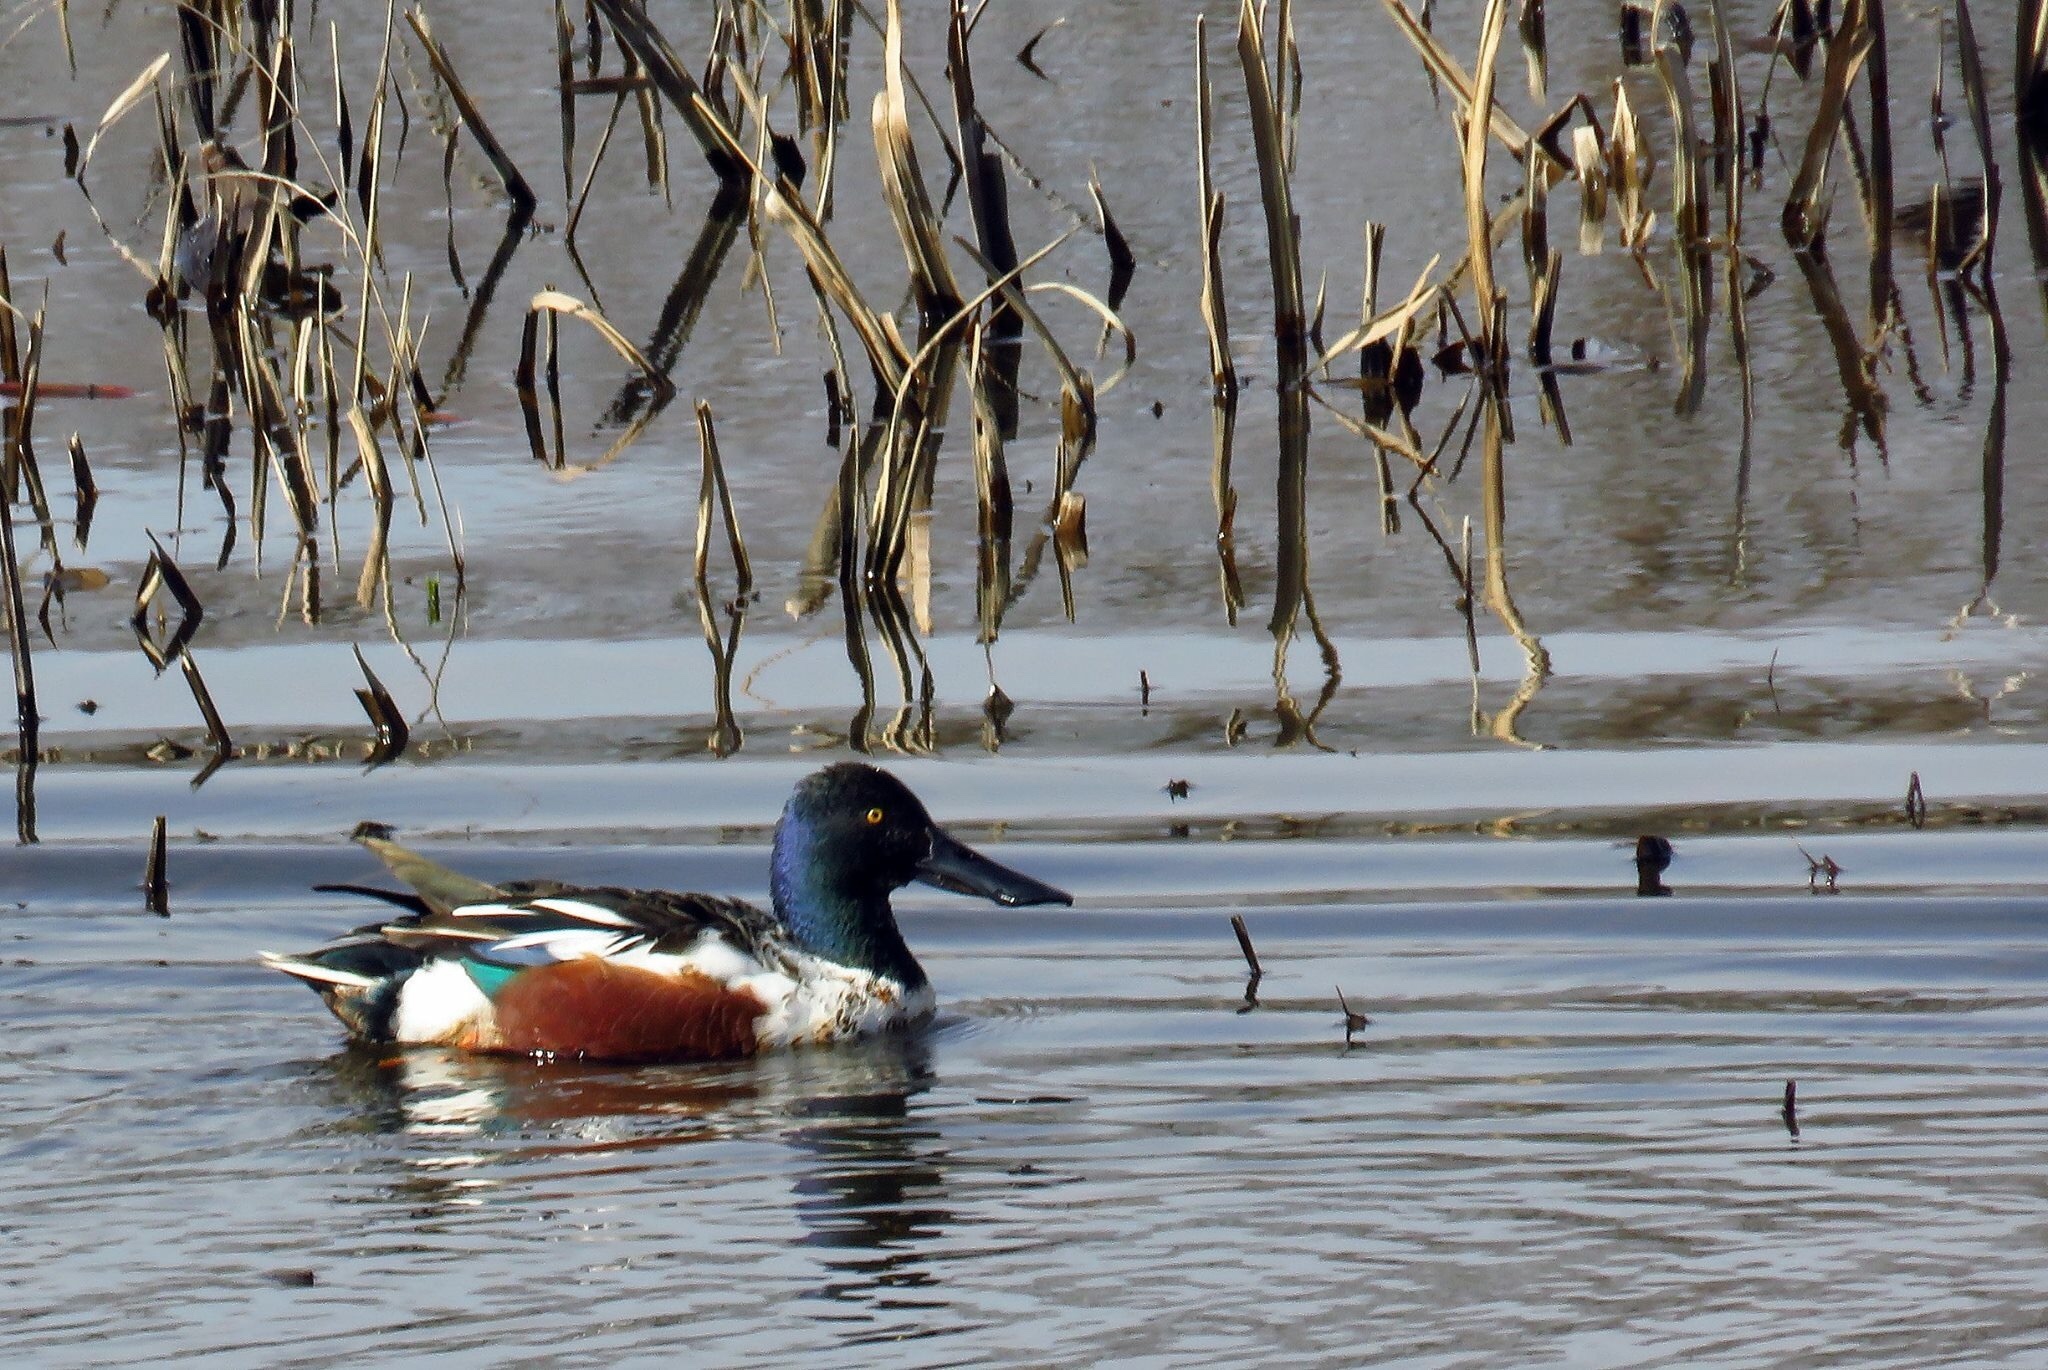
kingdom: Animalia
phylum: Chordata
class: Aves
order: Anseriformes
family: Anatidae
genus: Spatula
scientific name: Spatula clypeata
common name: Northern shoveler
